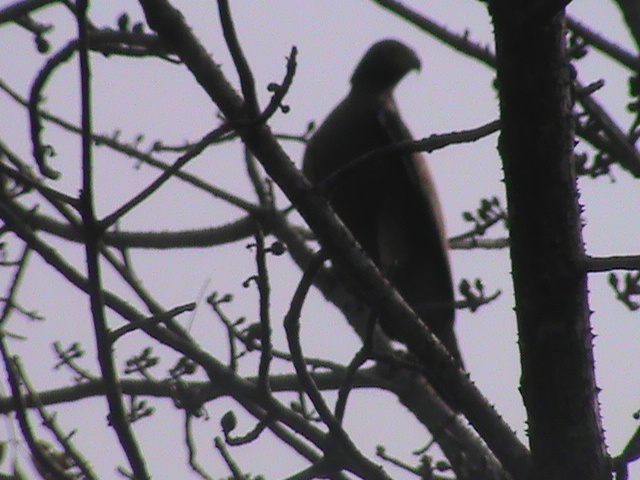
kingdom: Animalia
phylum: Chordata
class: Aves
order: Accipitriformes
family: Accipitridae
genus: Spilornis
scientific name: Spilornis cheela
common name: Crested serpent eagle
